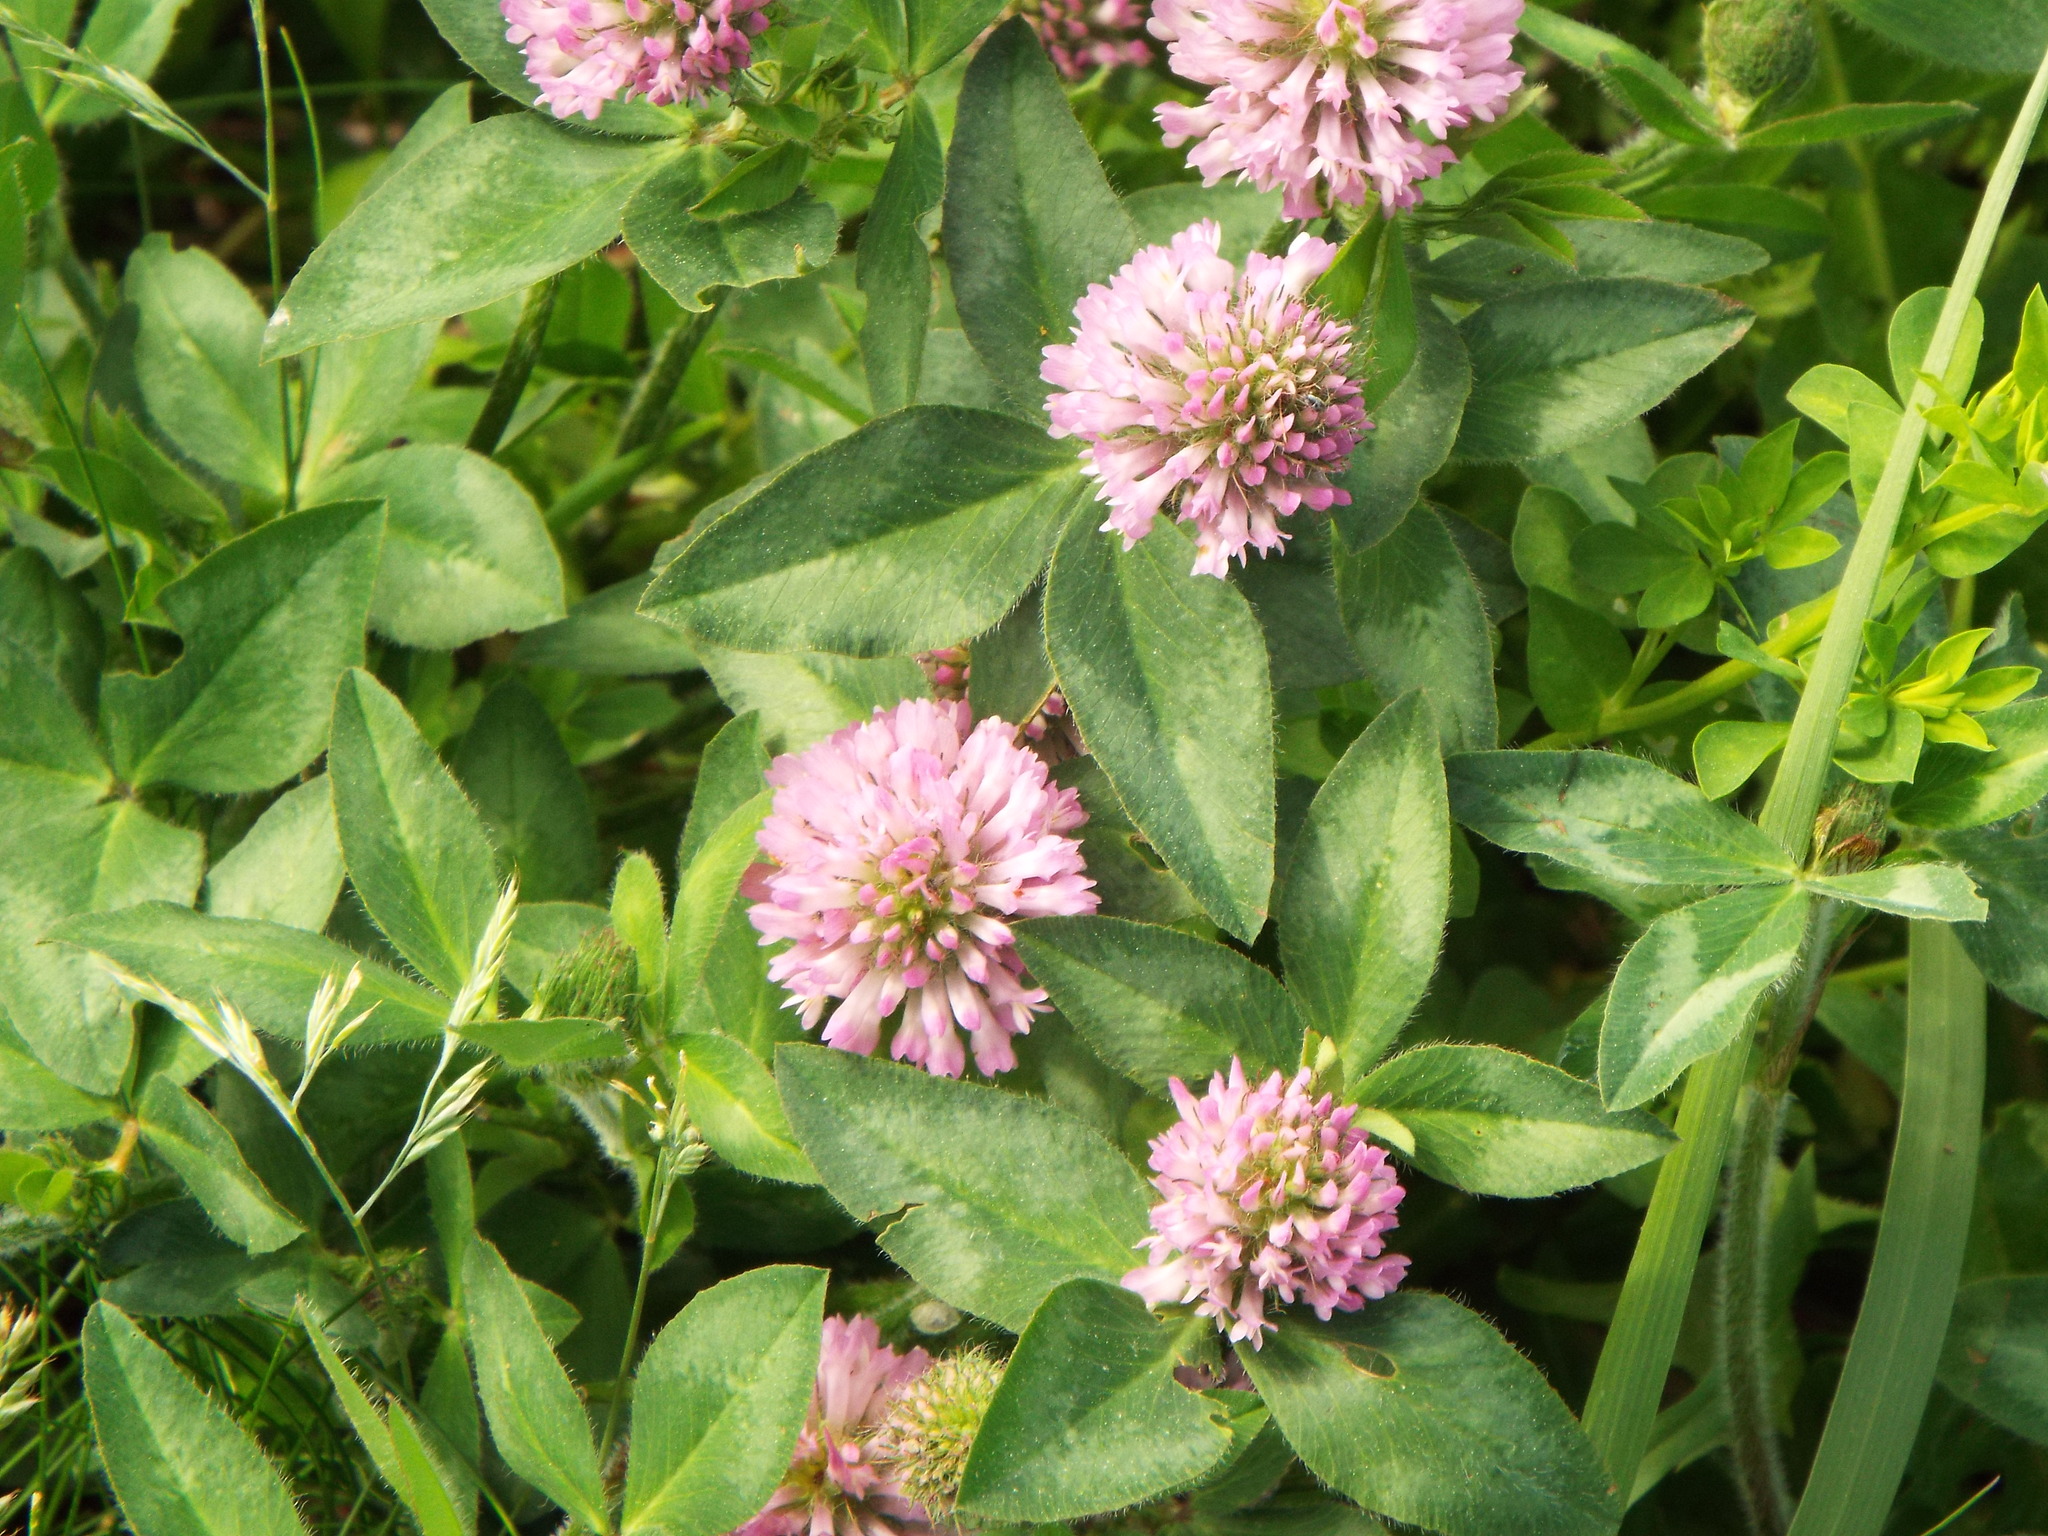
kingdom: Plantae
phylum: Tracheophyta
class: Magnoliopsida
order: Fabales
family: Fabaceae
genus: Trifolium
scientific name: Trifolium pratense
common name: Red clover
